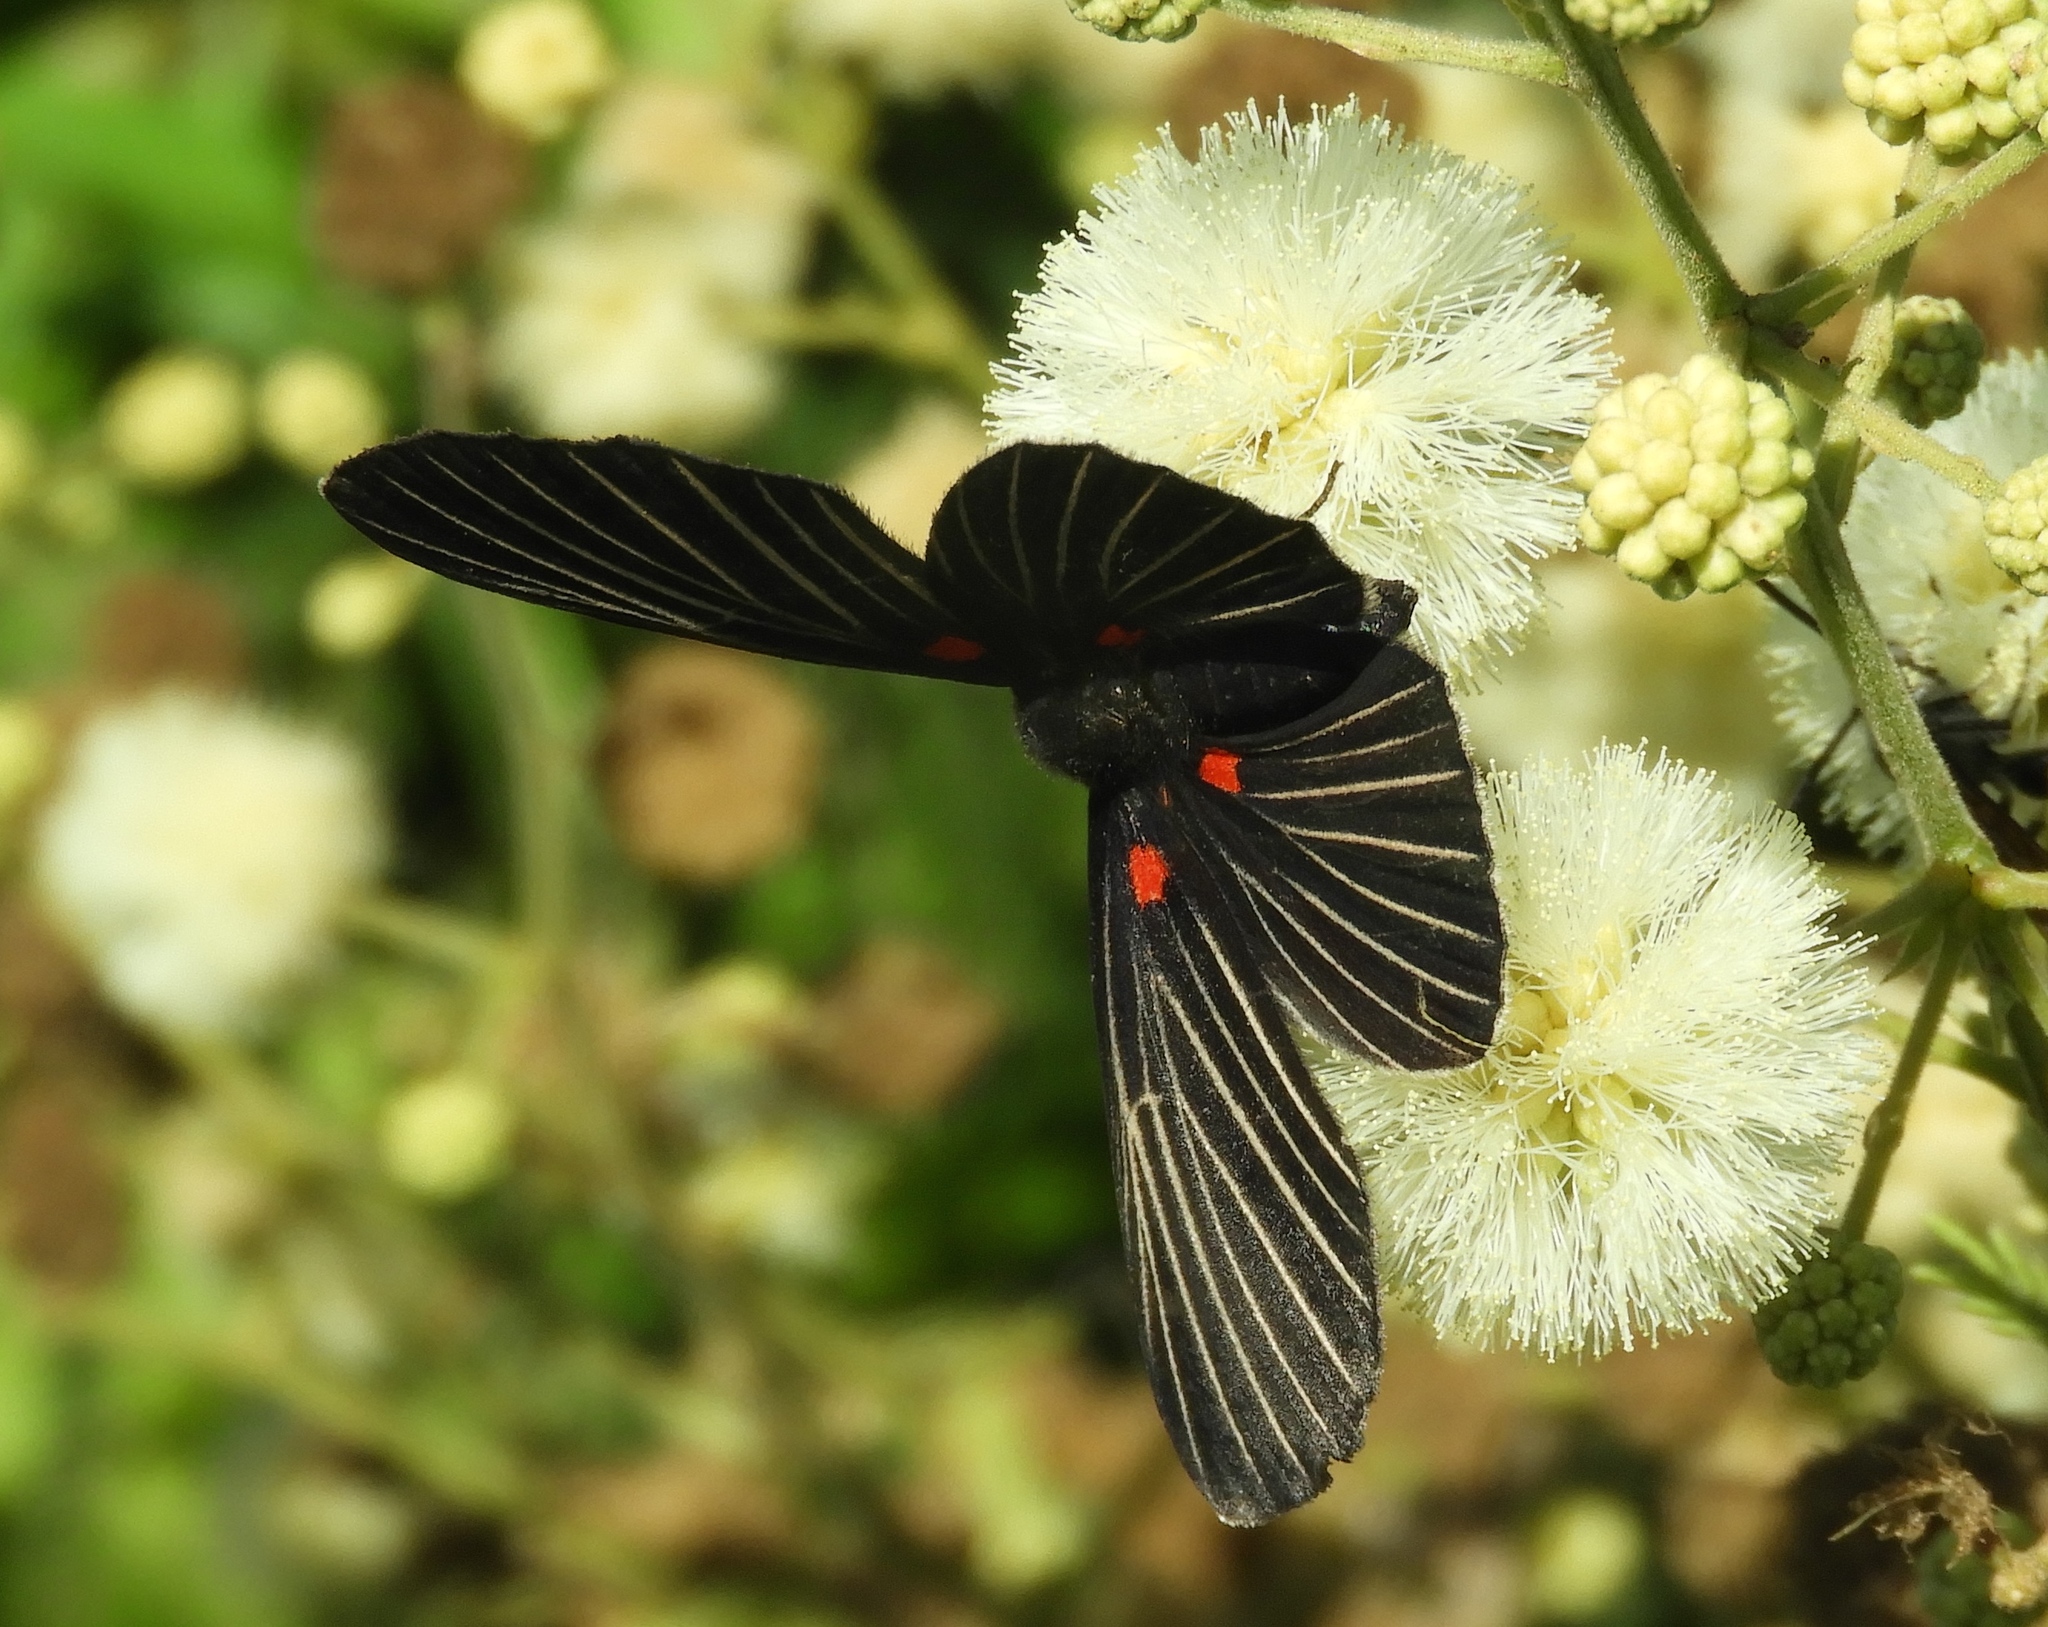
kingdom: Animalia
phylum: Arthropoda
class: Insecta
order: Lepidoptera
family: Lycaenidae
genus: Melanis
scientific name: Melanis
